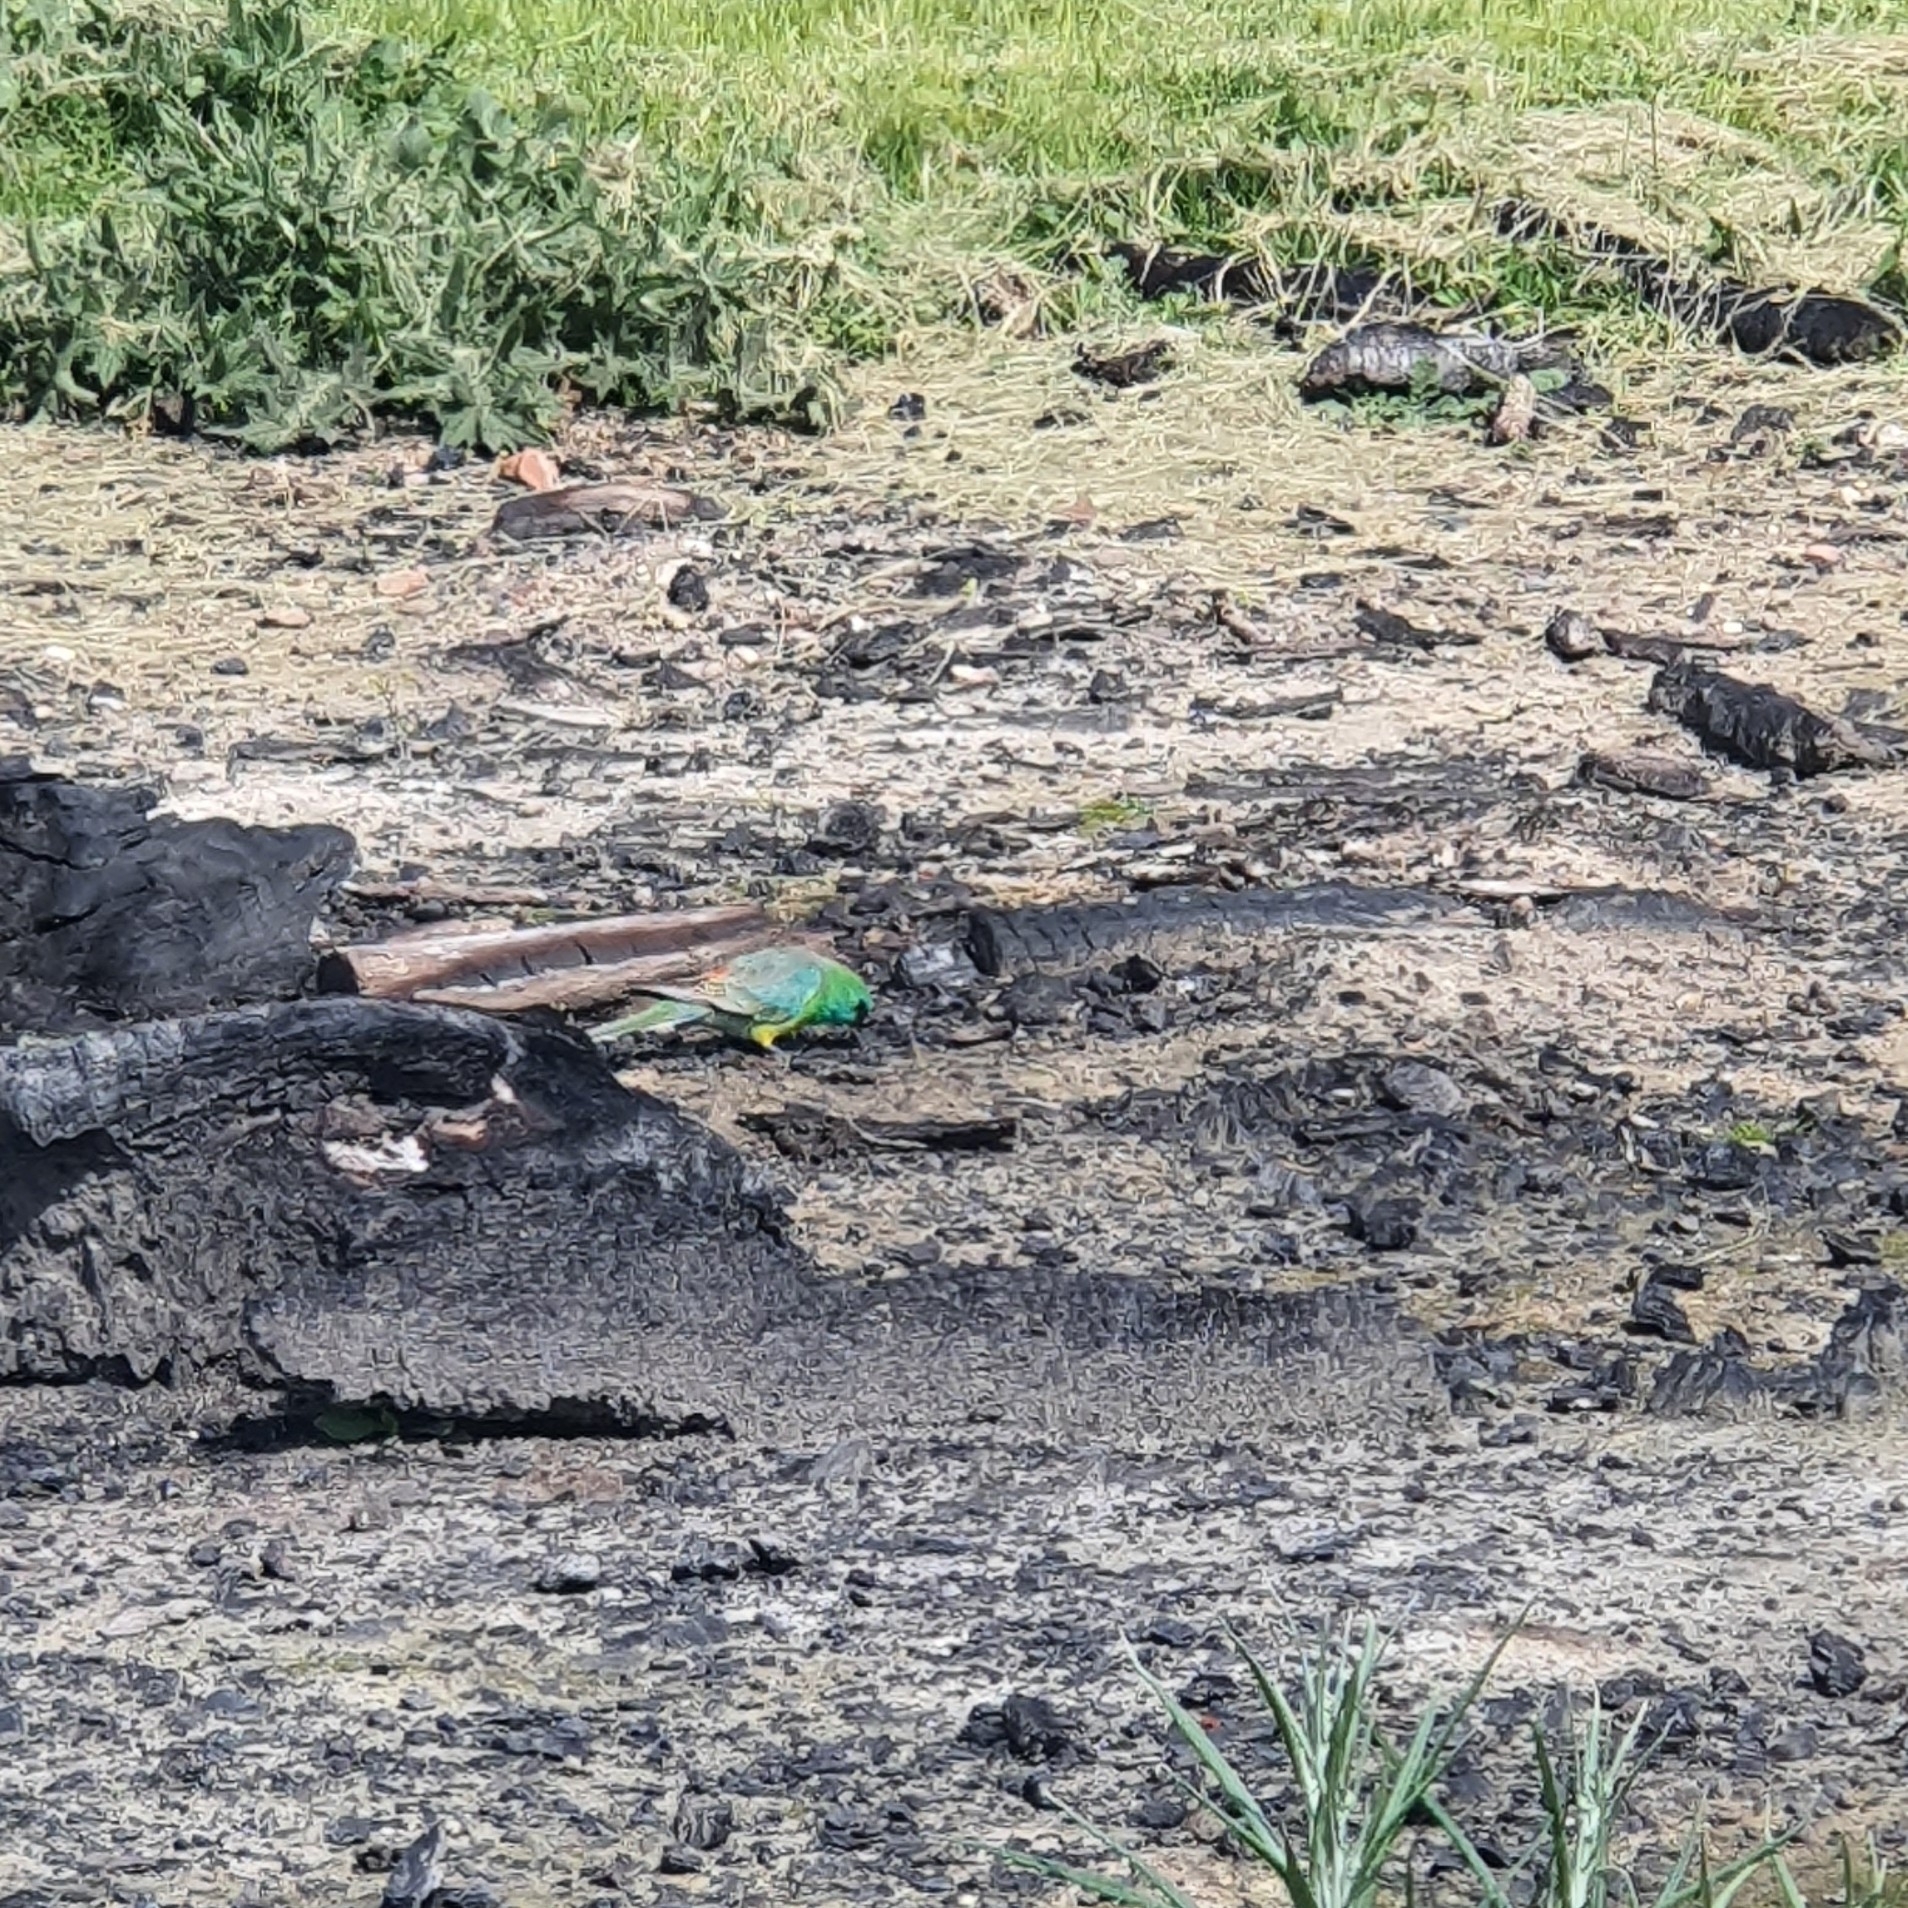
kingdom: Animalia
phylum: Chordata
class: Aves
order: Psittaciformes
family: Psittacidae
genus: Psephotus
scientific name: Psephotus haematonotus
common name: Red-rumped parrot
